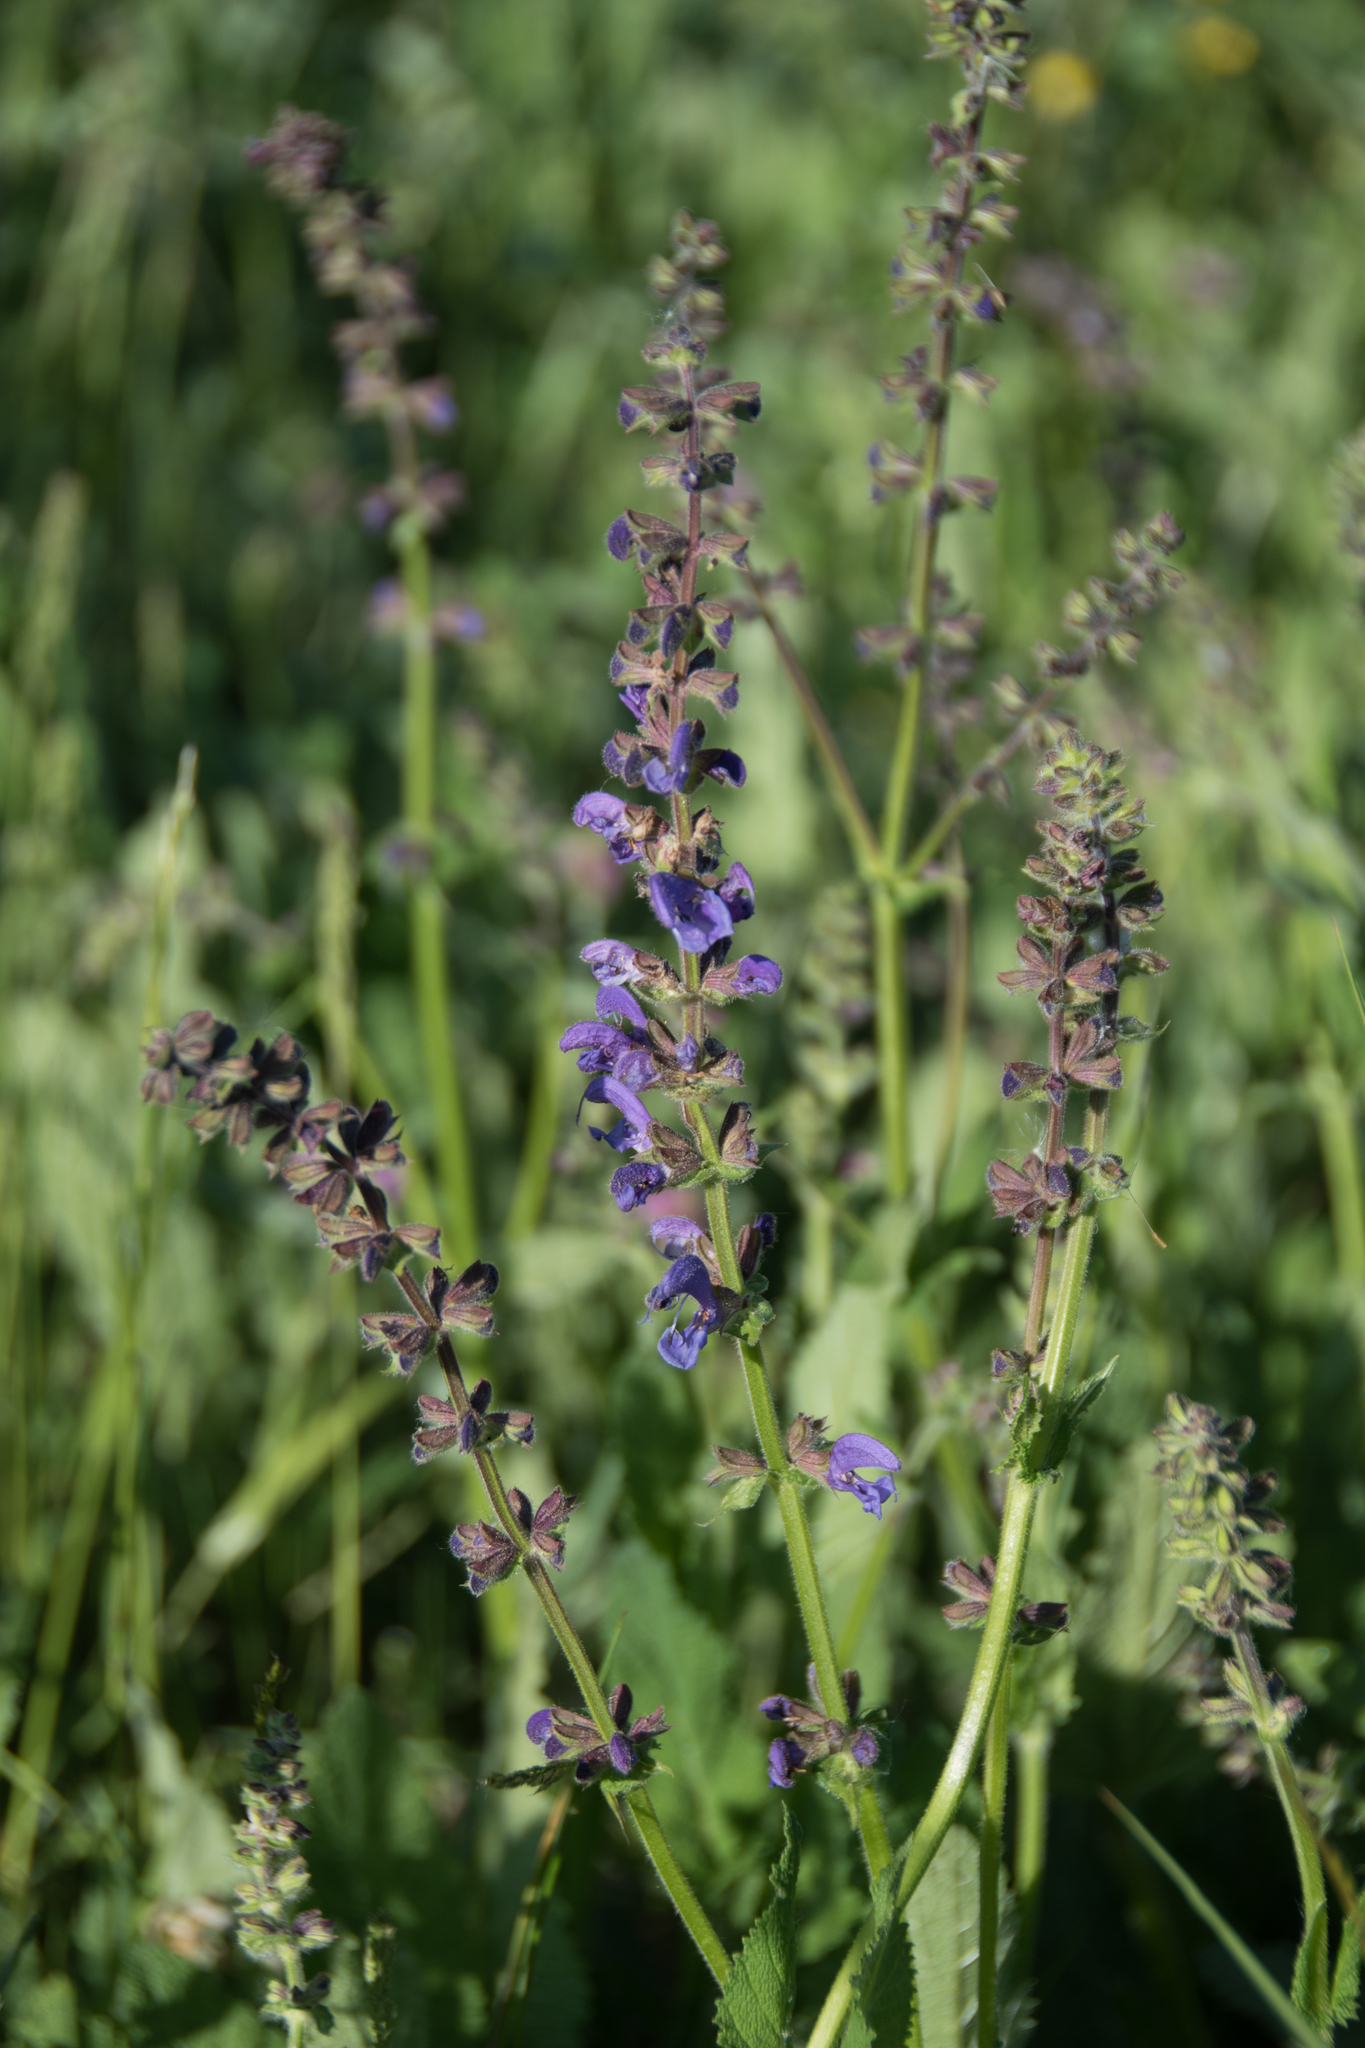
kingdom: Plantae
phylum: Tracheophyta
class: Magnoliopsida
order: Lamiales
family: Lamiaceae
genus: Salvia
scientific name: Salvia pratensis
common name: Meadow sage
